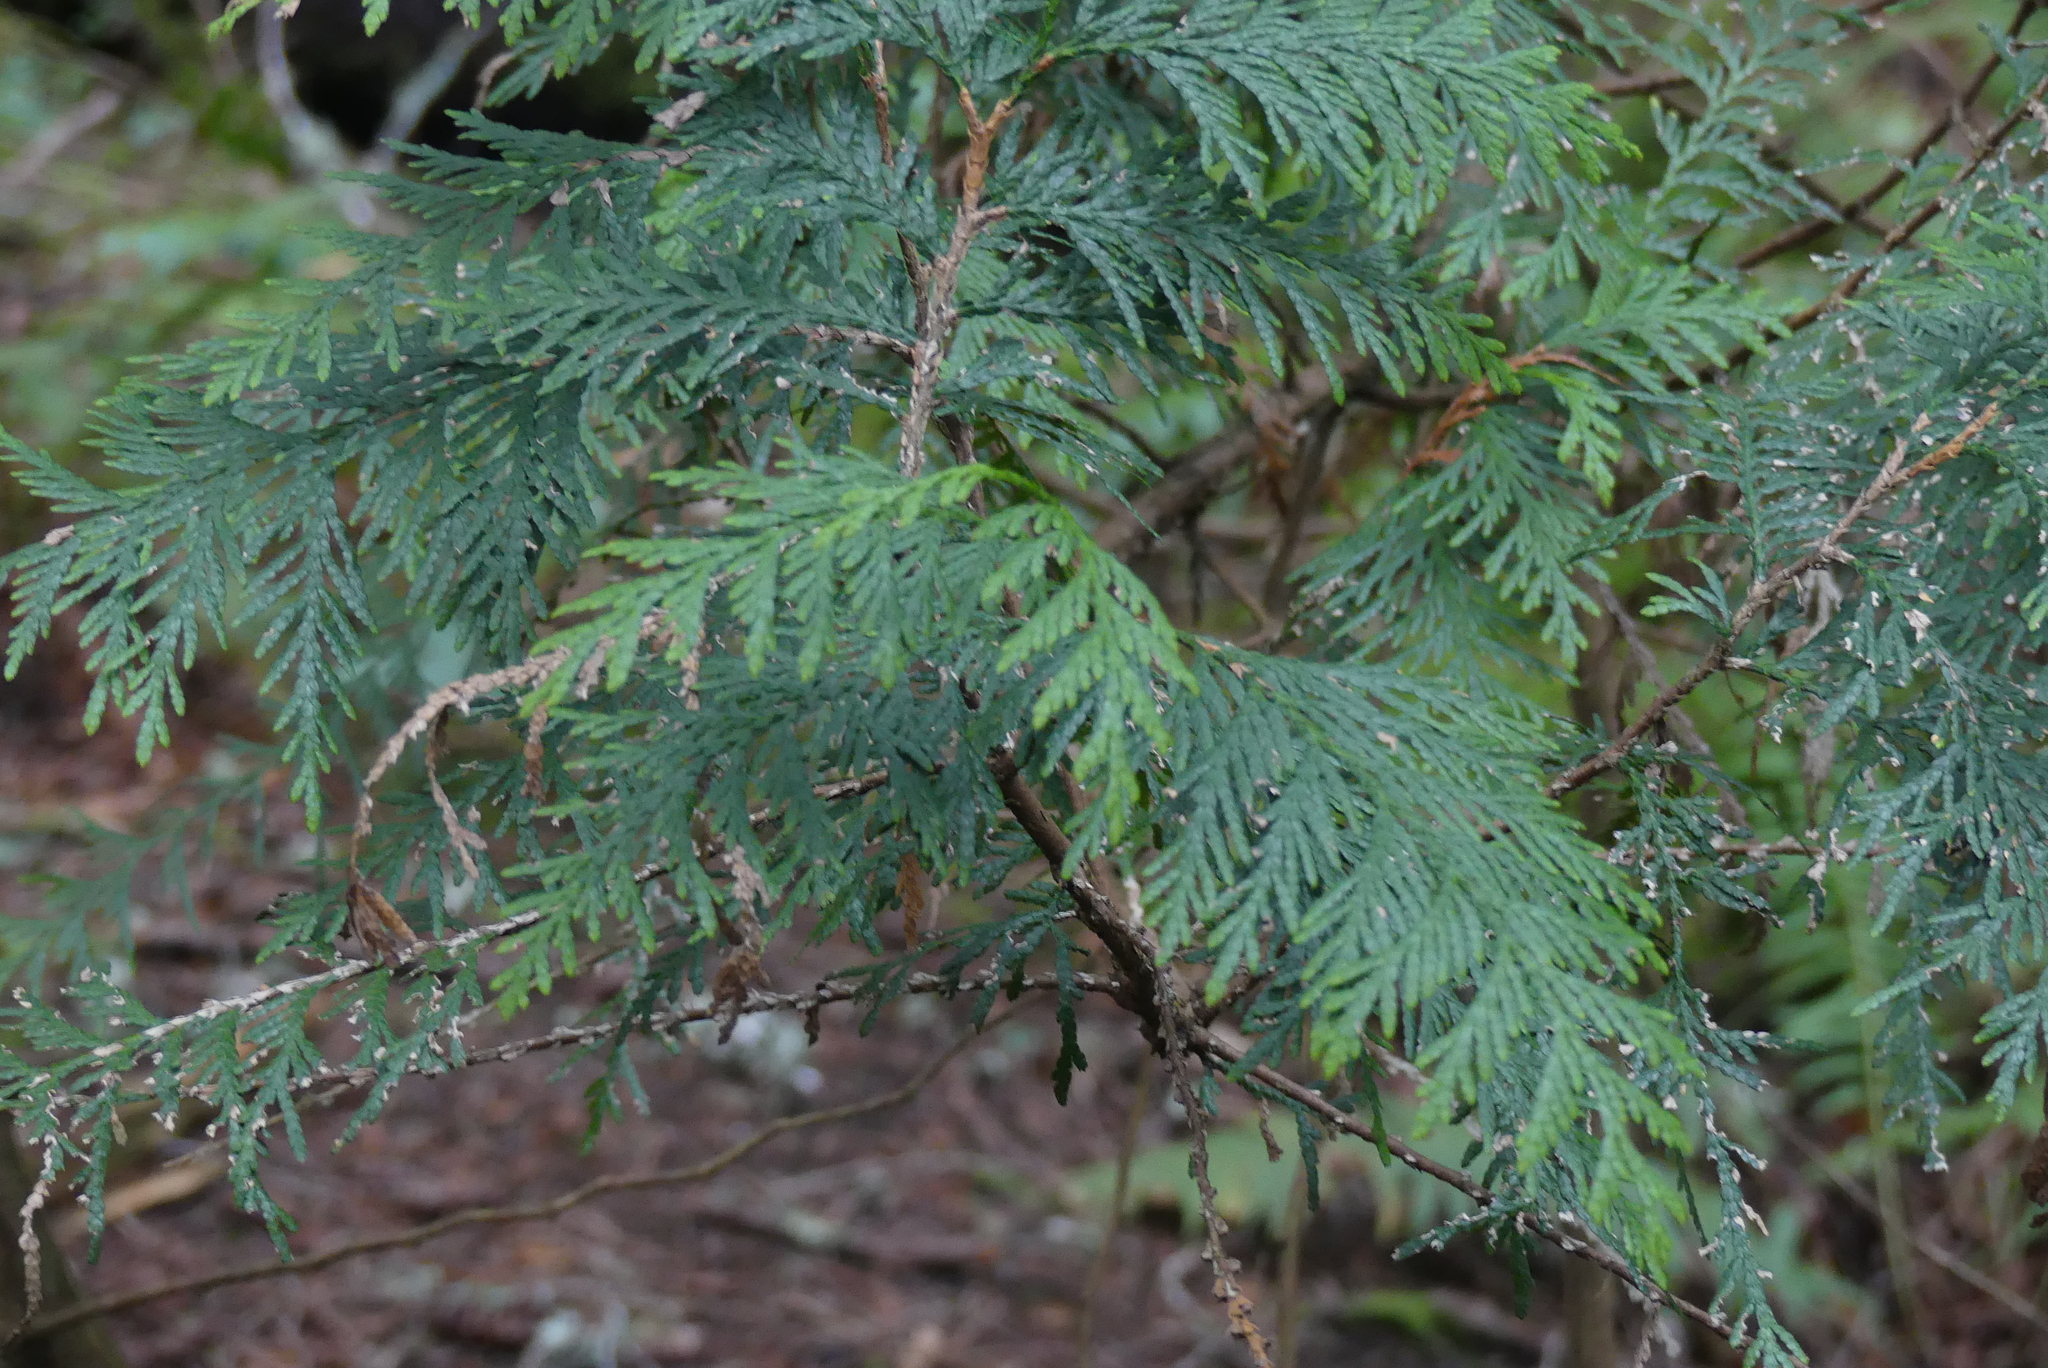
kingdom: Plantae
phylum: Tracheophyta
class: Pinopsida
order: Pinales
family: Cupressaceae
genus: Thuja
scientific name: Thuja plicata
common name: Western red-cedar
